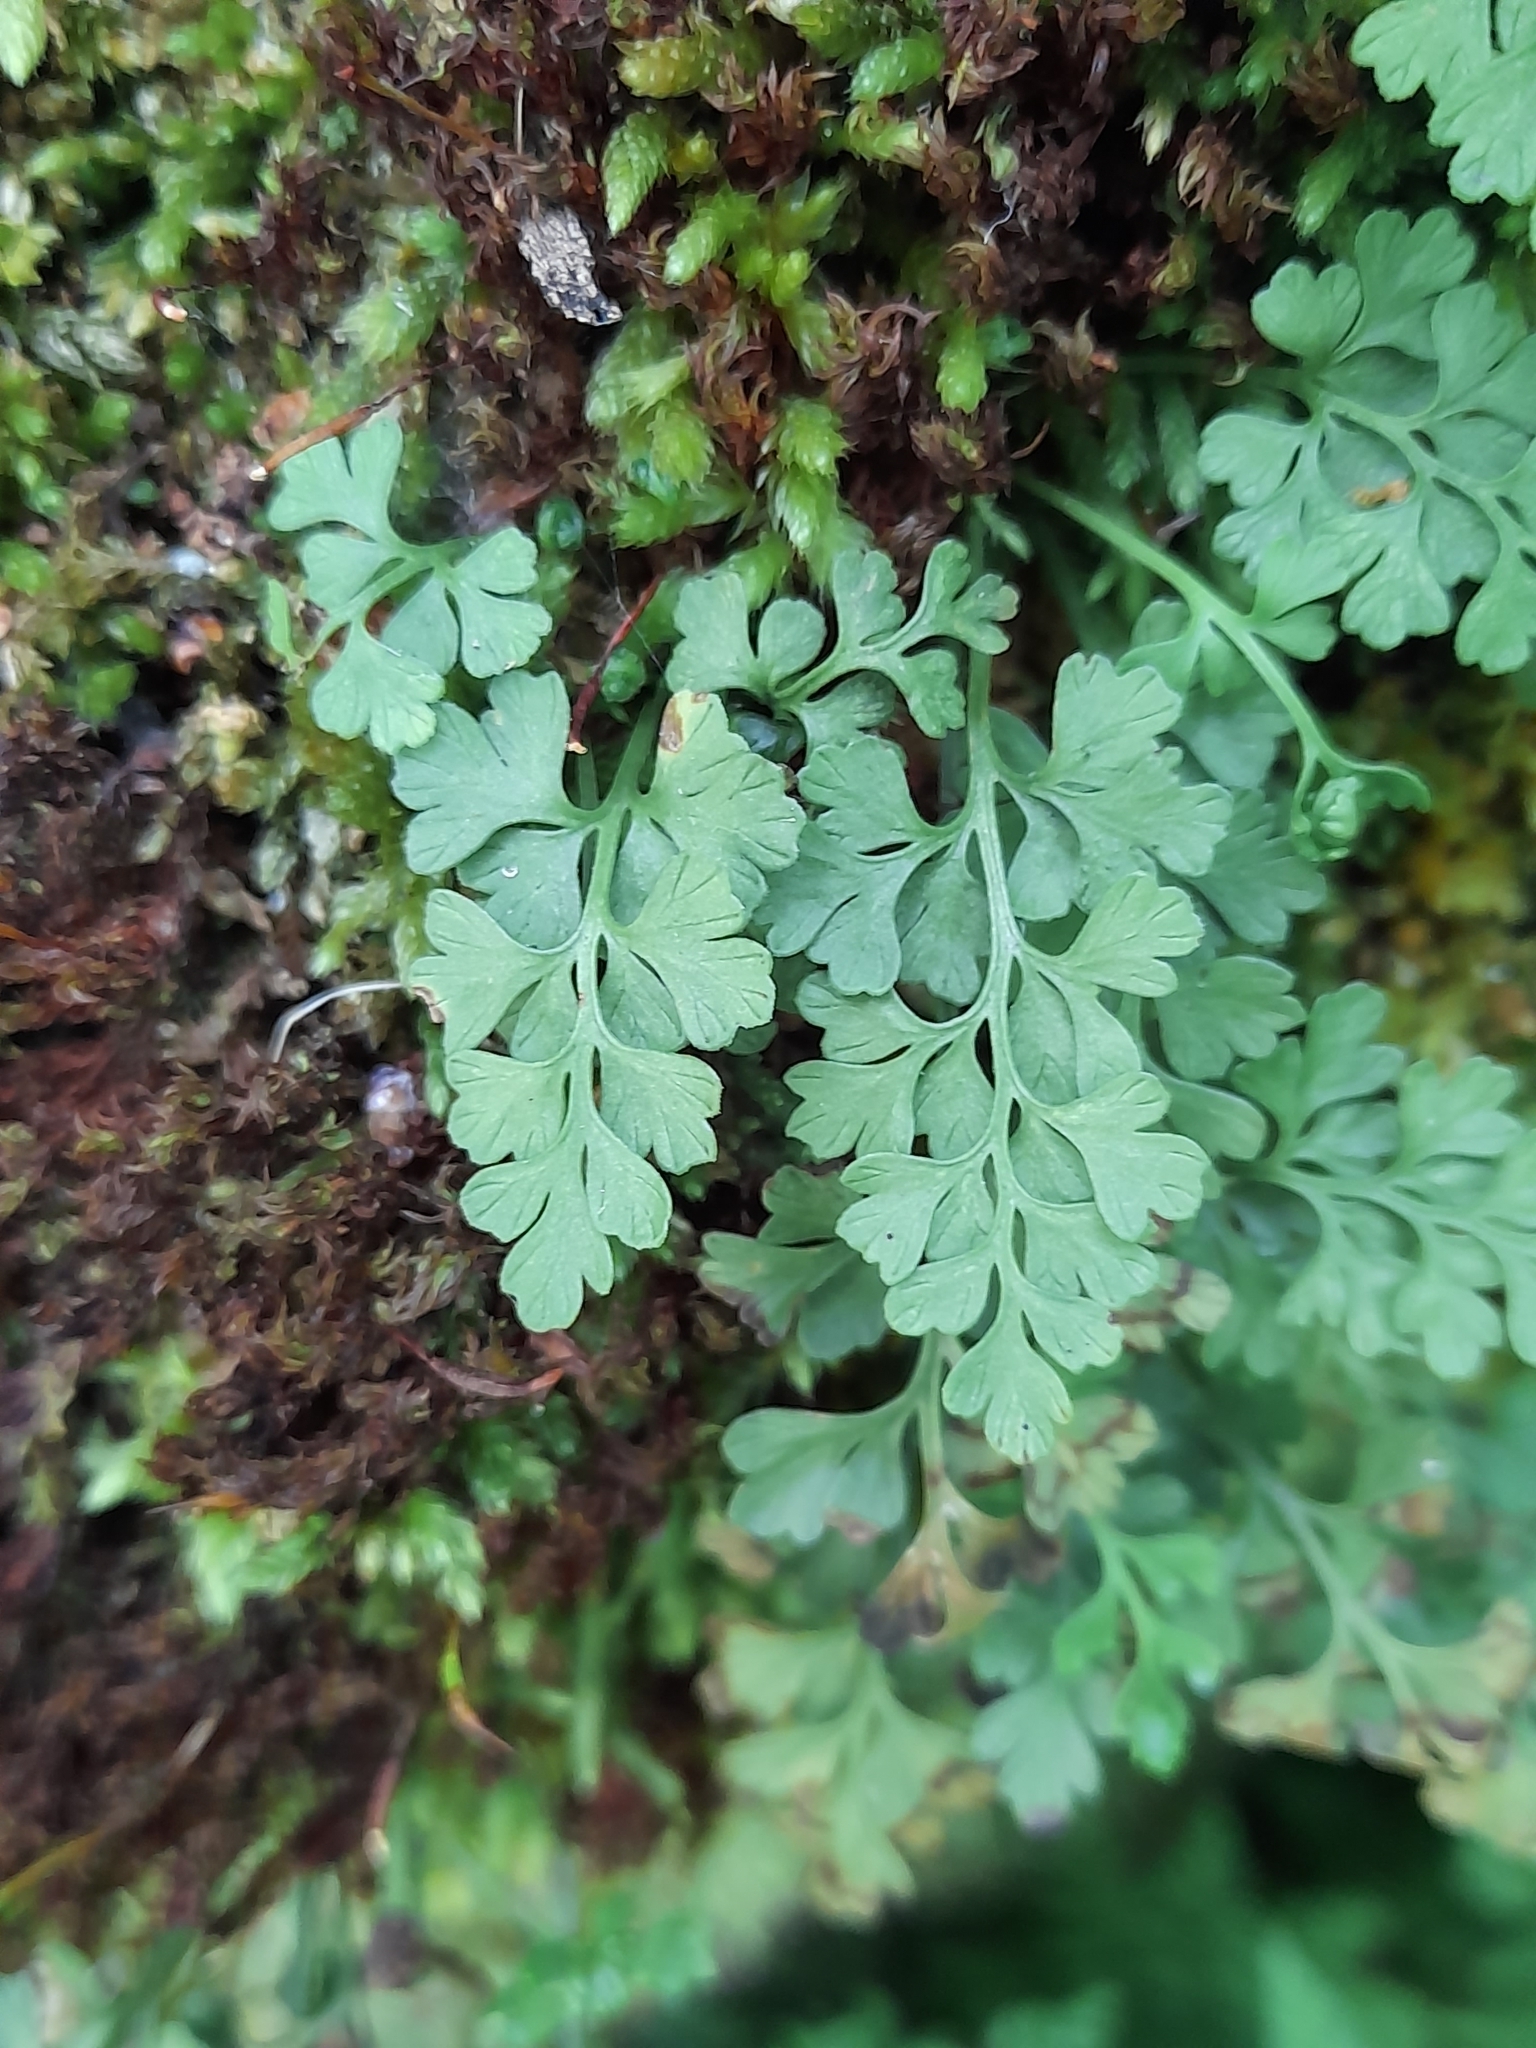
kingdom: Plantae
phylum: Tracheophyta
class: Polypodiopsida
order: Polypodiales
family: Aspleniaceae
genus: Asplenium
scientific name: Asplenium dareoides
